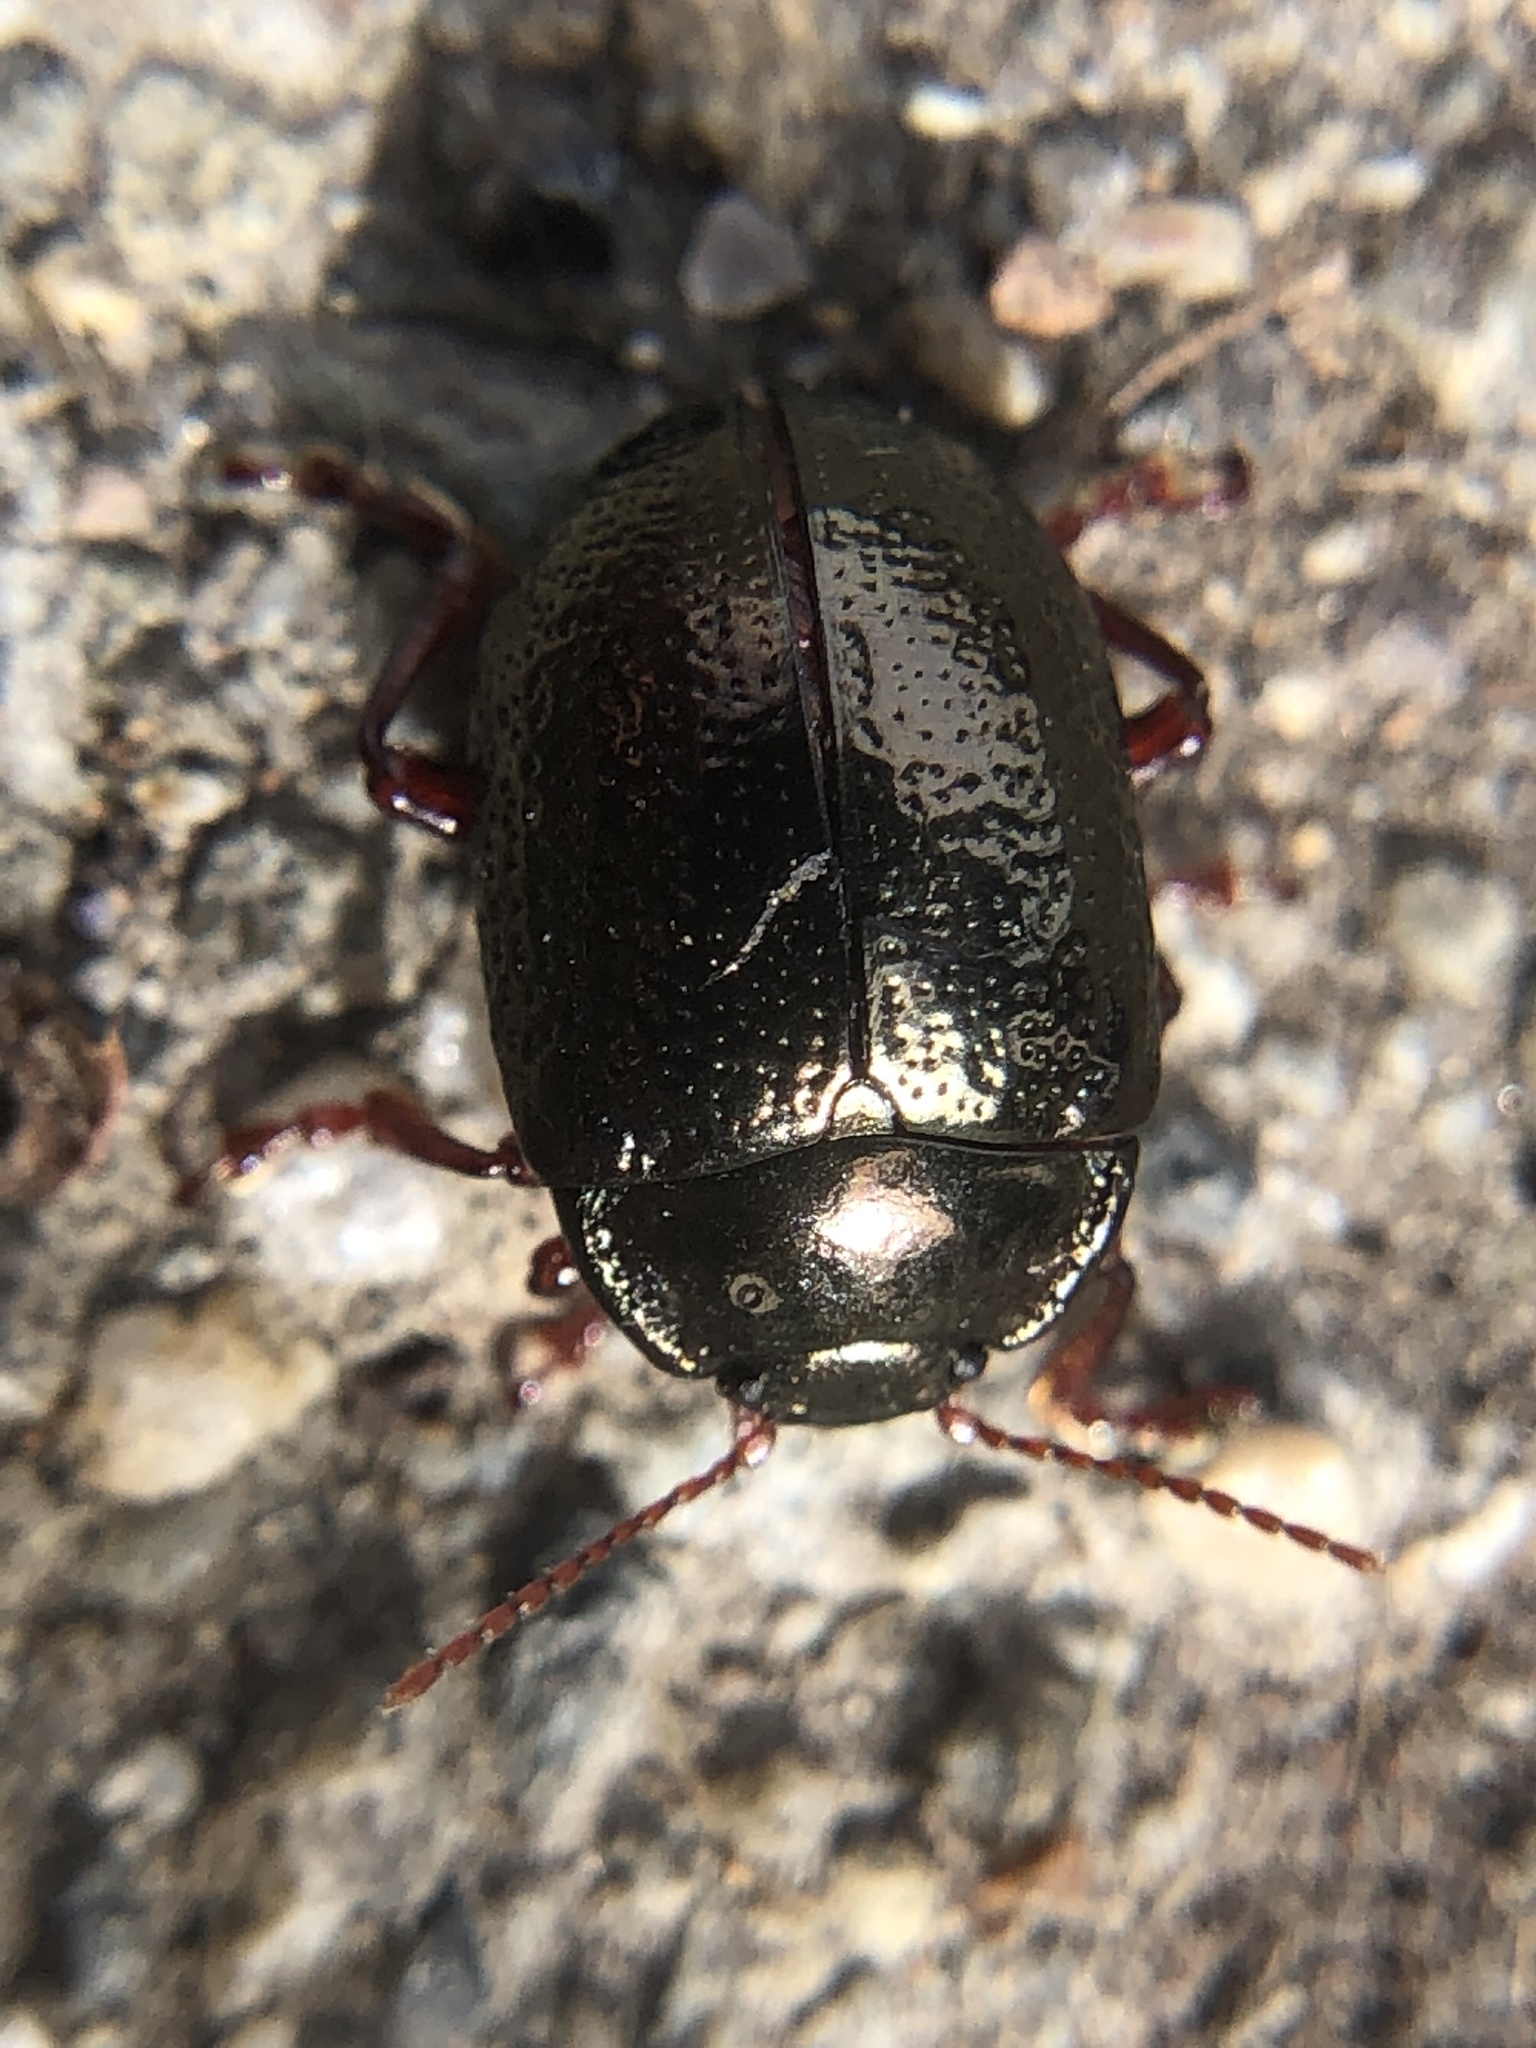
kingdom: Animalia
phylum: Arthropoda
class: Insecta
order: Coleoptera
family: Chrysomelidae
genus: Chrysolina
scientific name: Chrysolina bankii
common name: Leaf beetle
